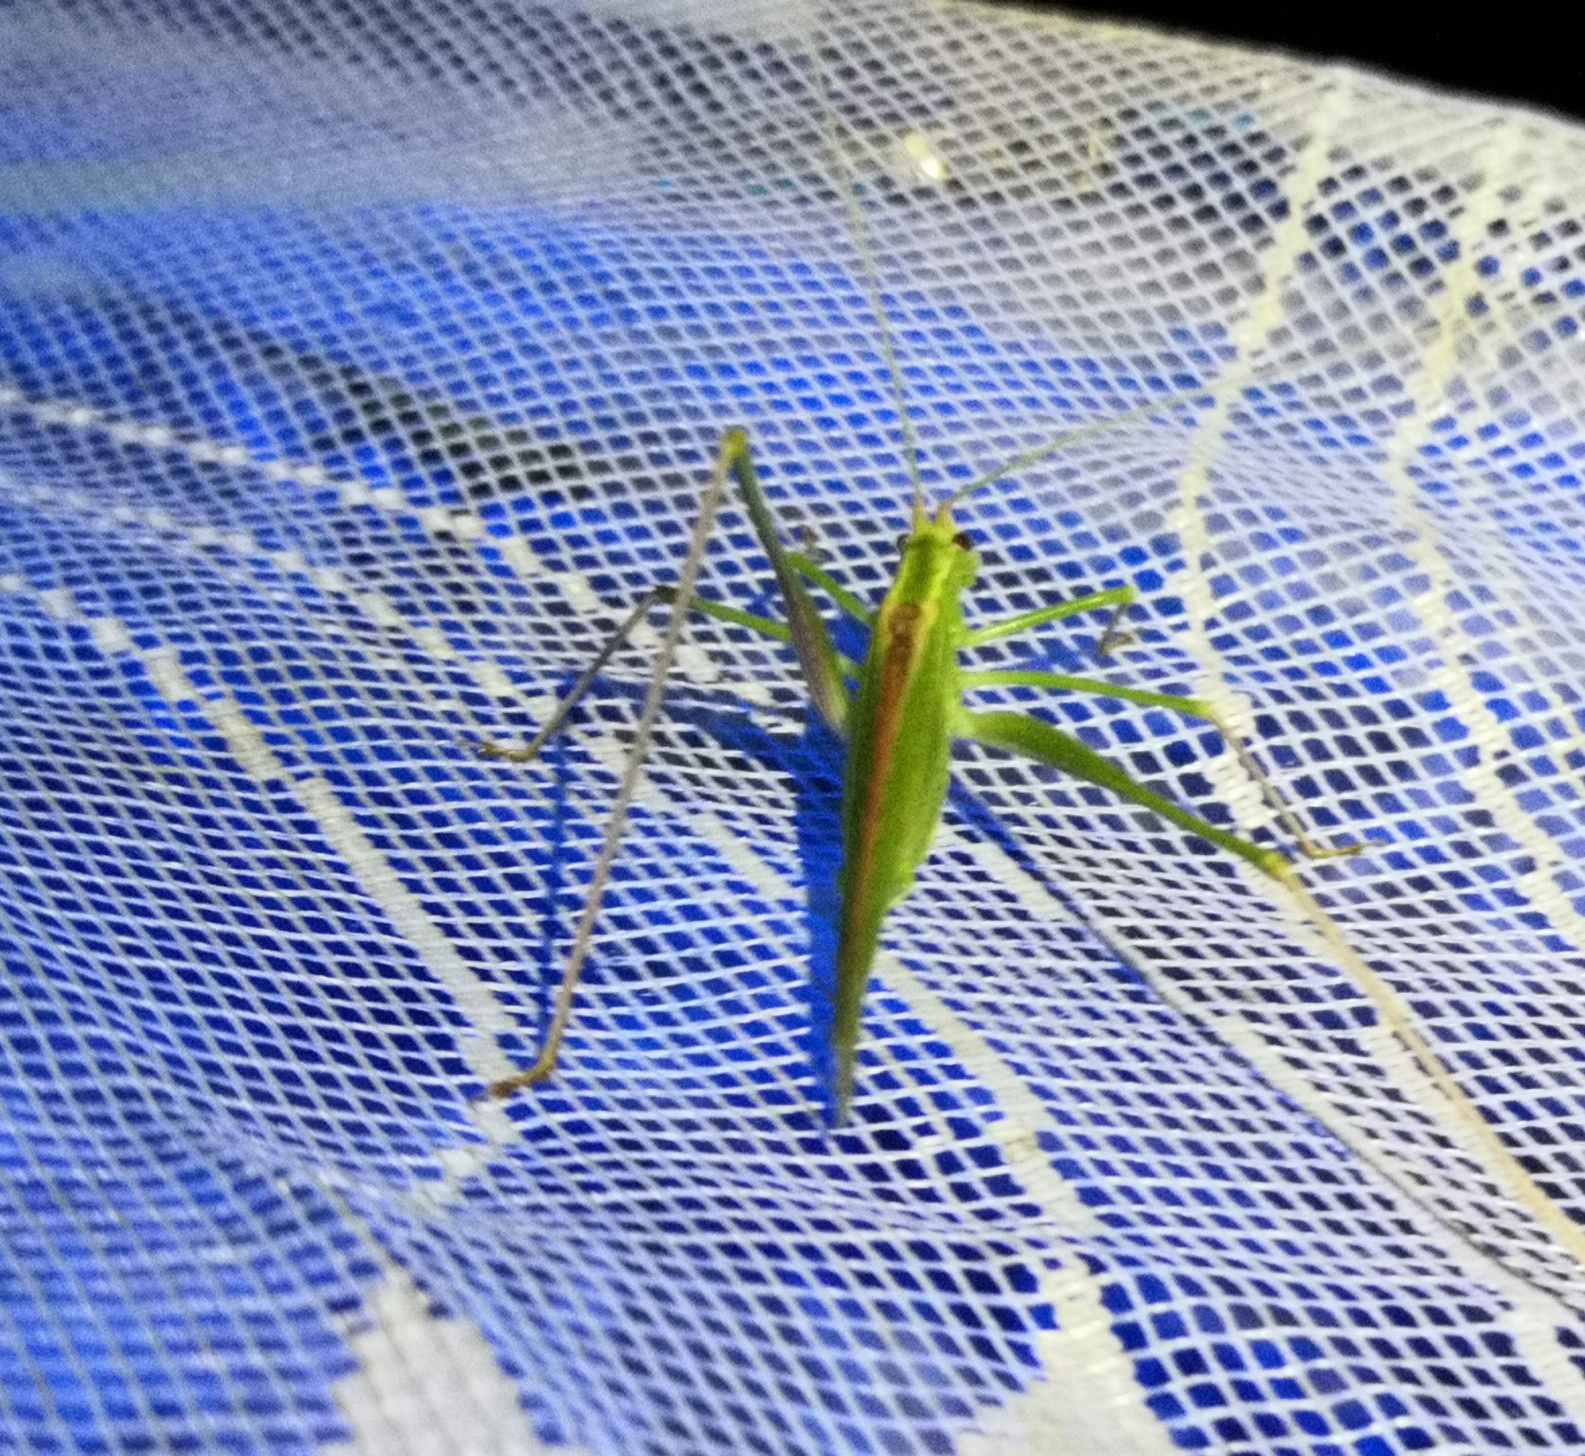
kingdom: Animalia
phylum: Arthropoda
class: Insecta
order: Orthoptera
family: Tettigoniidae
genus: Tylopsis
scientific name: Tylopsis lilifolia
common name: Lily bush-cricket
